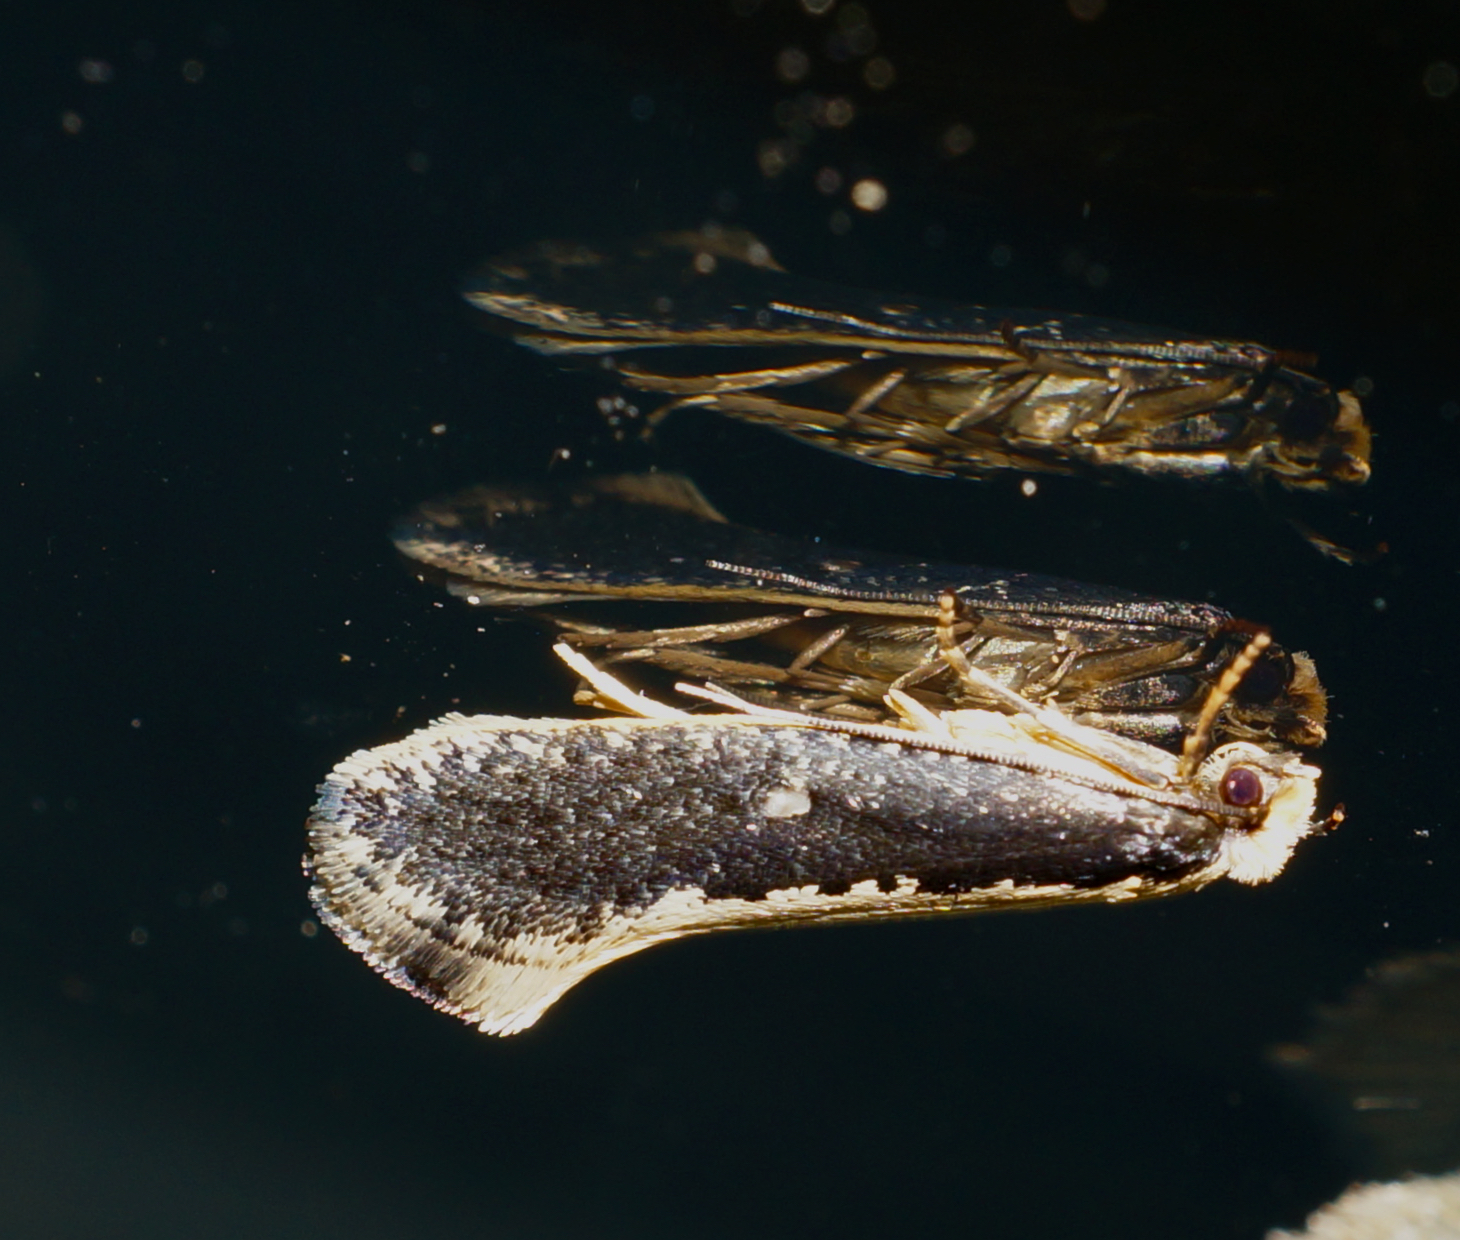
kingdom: Animalia
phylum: Arthropoda
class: Insecta
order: Lepidoptera
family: Tineidae
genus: Monopis
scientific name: Monopis ethelella
